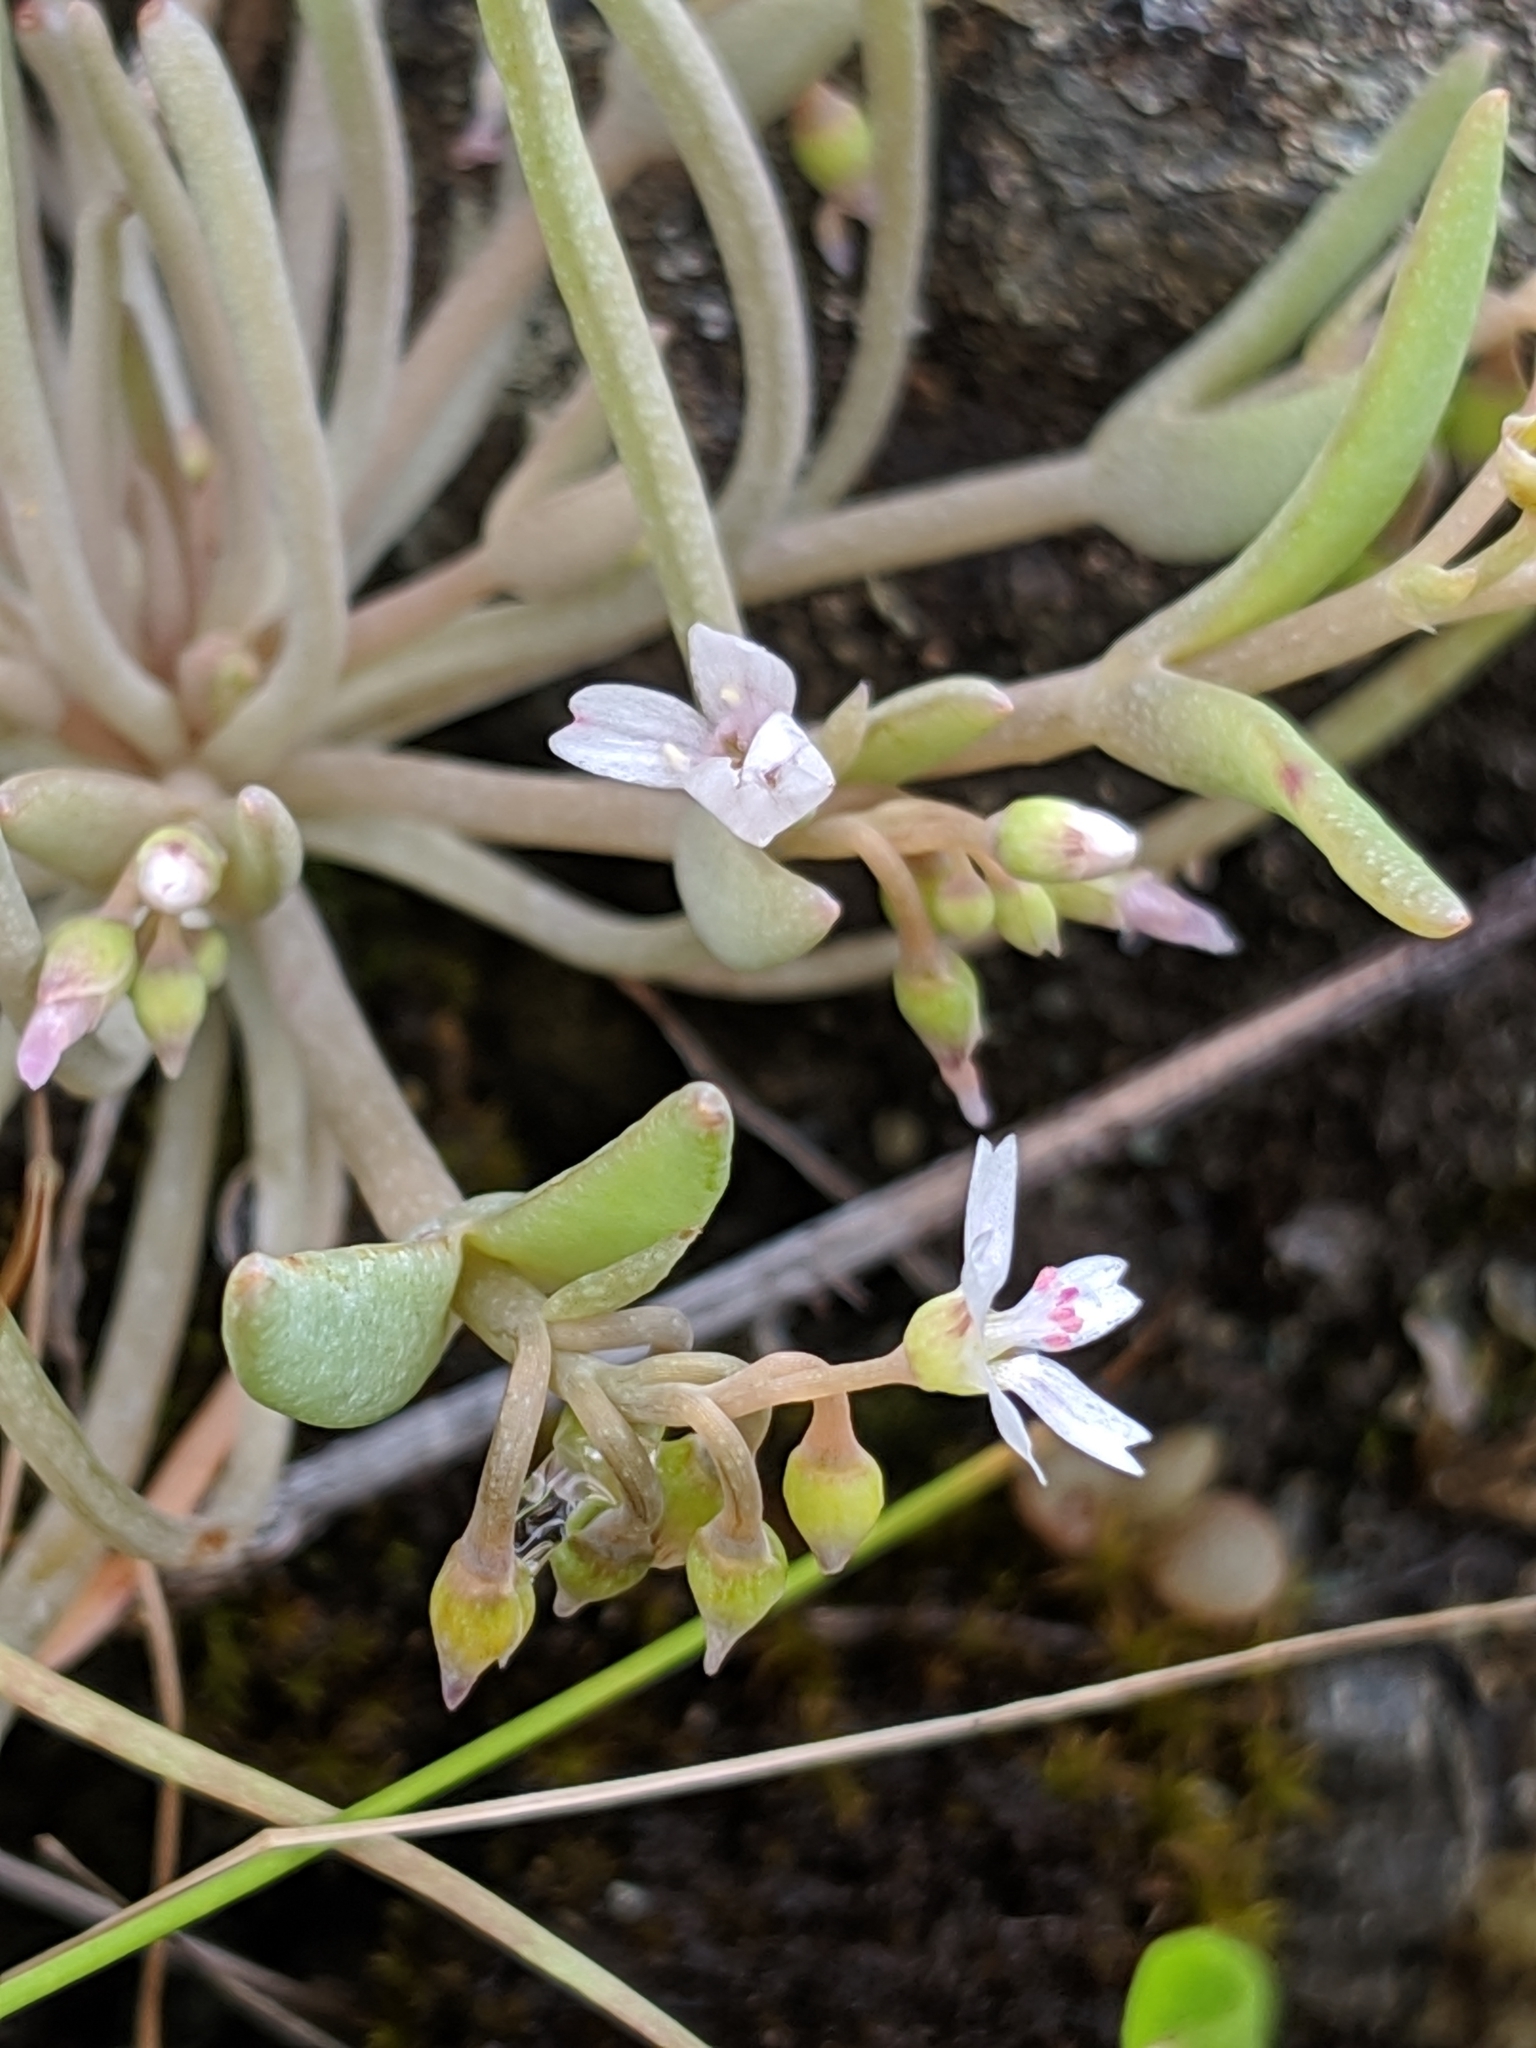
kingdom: Plantae
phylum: Tracheophyta
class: Magnoliopsida
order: Caryophyllales
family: Montiaceae
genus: Claytonia
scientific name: Claytonia exigua
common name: Pale spring beauty
